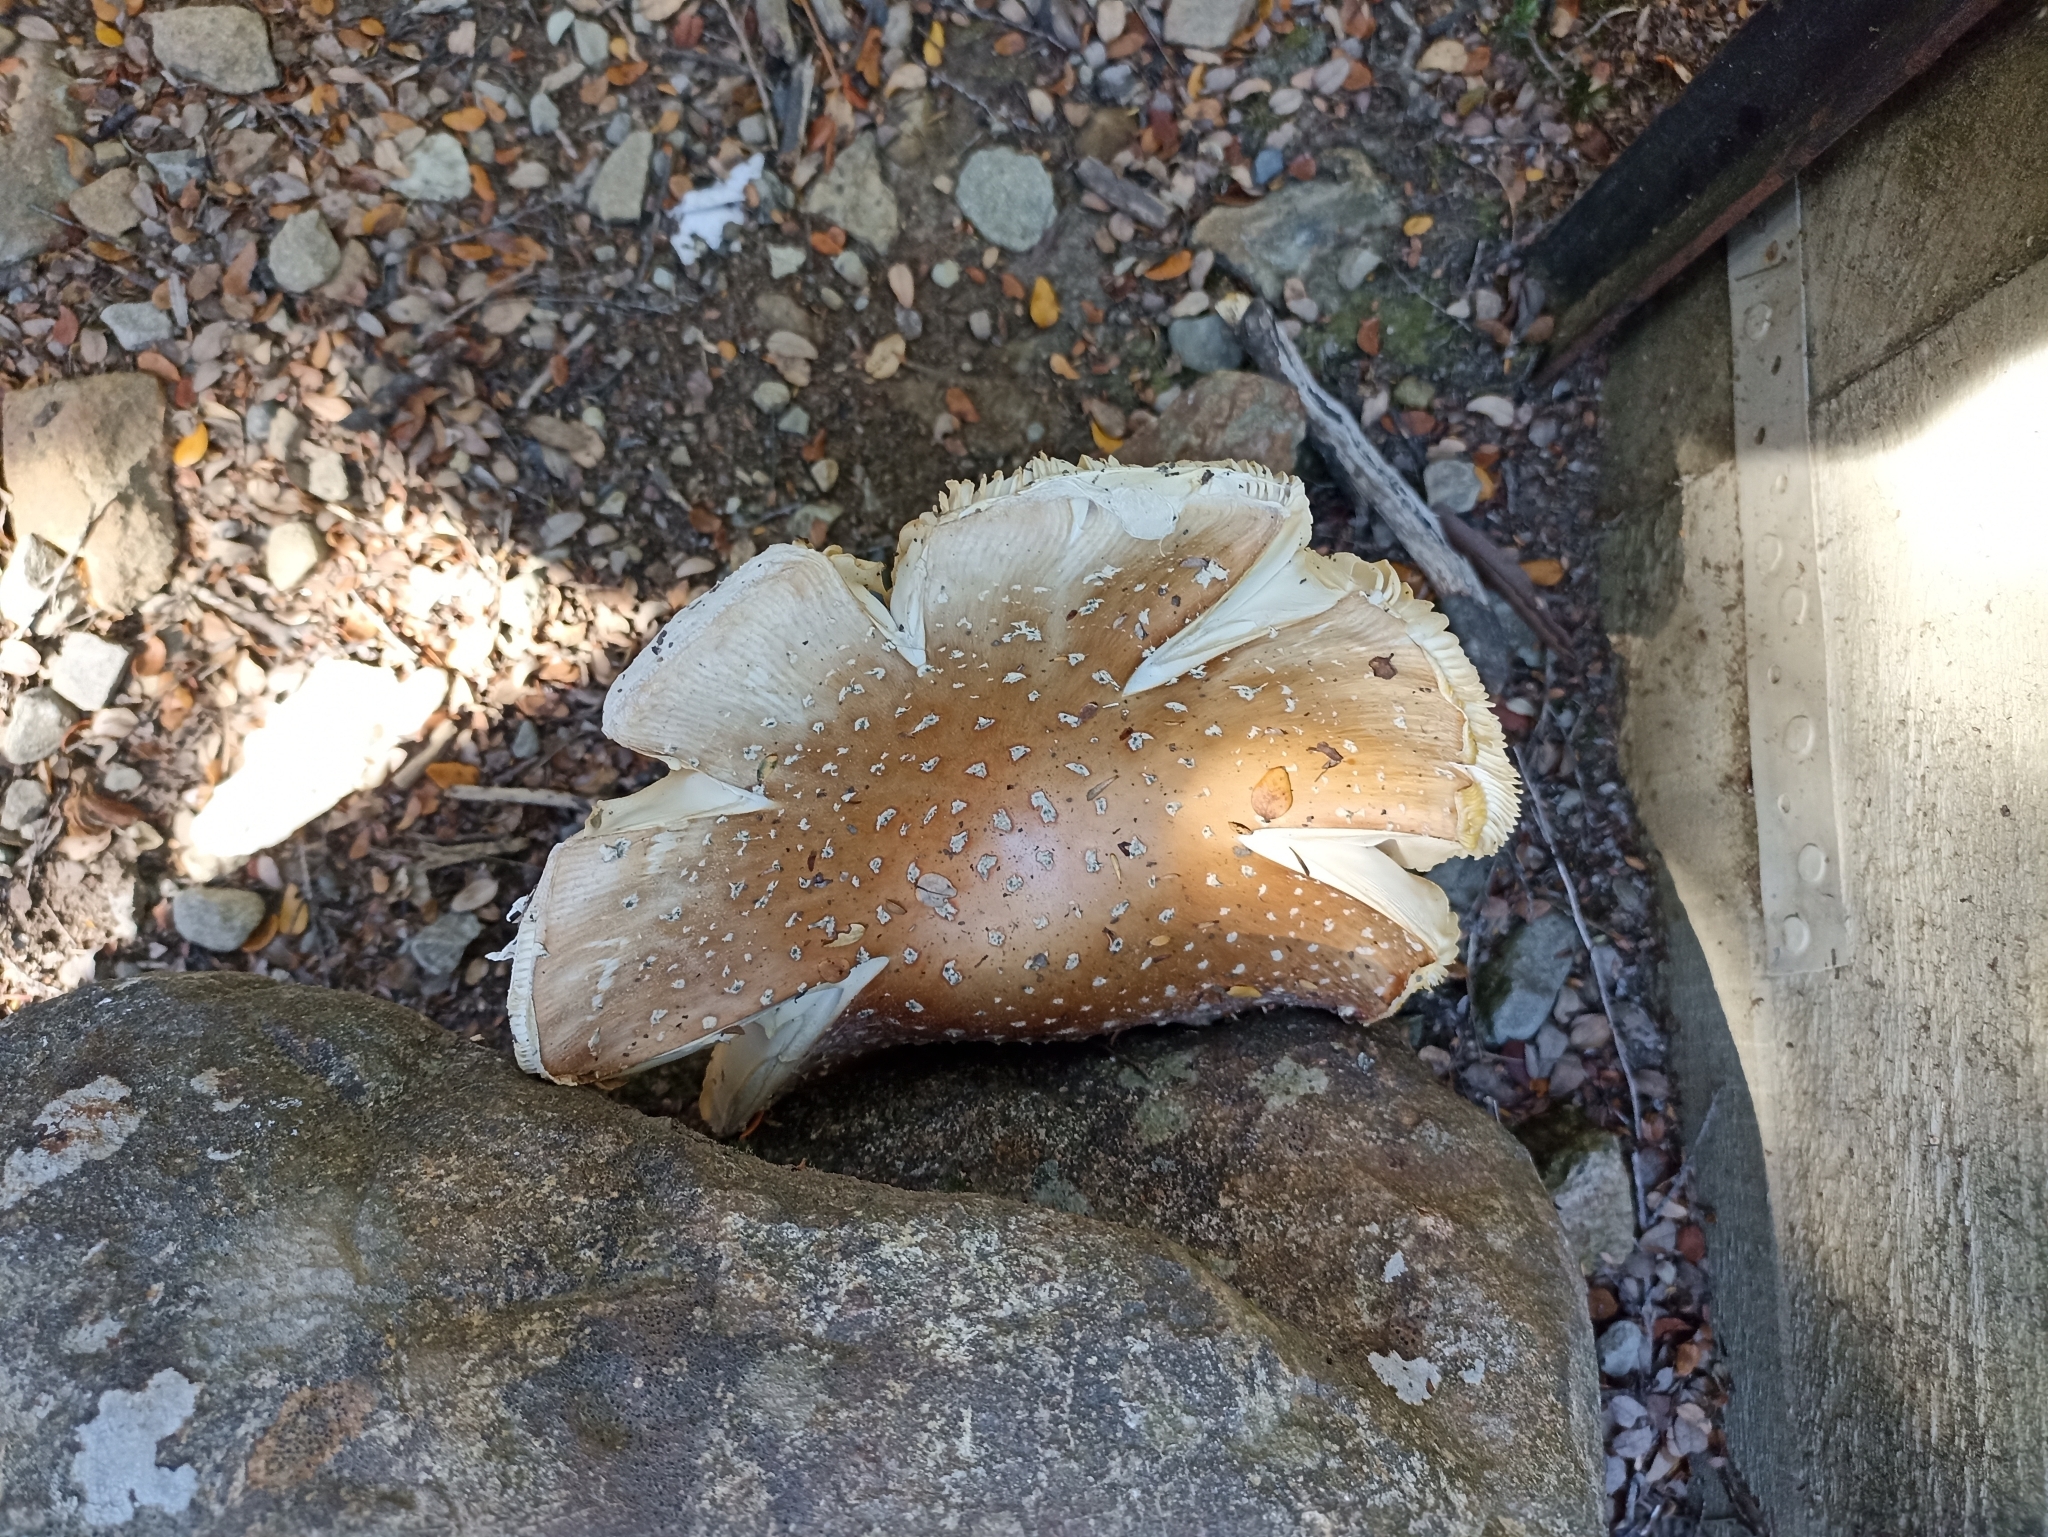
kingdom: Fungi
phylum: Basidiomycota
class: Agaricomycetes
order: Agaricales
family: Amanitaceae
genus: Amanita
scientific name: Amanita muscaria
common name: Fly agaric
